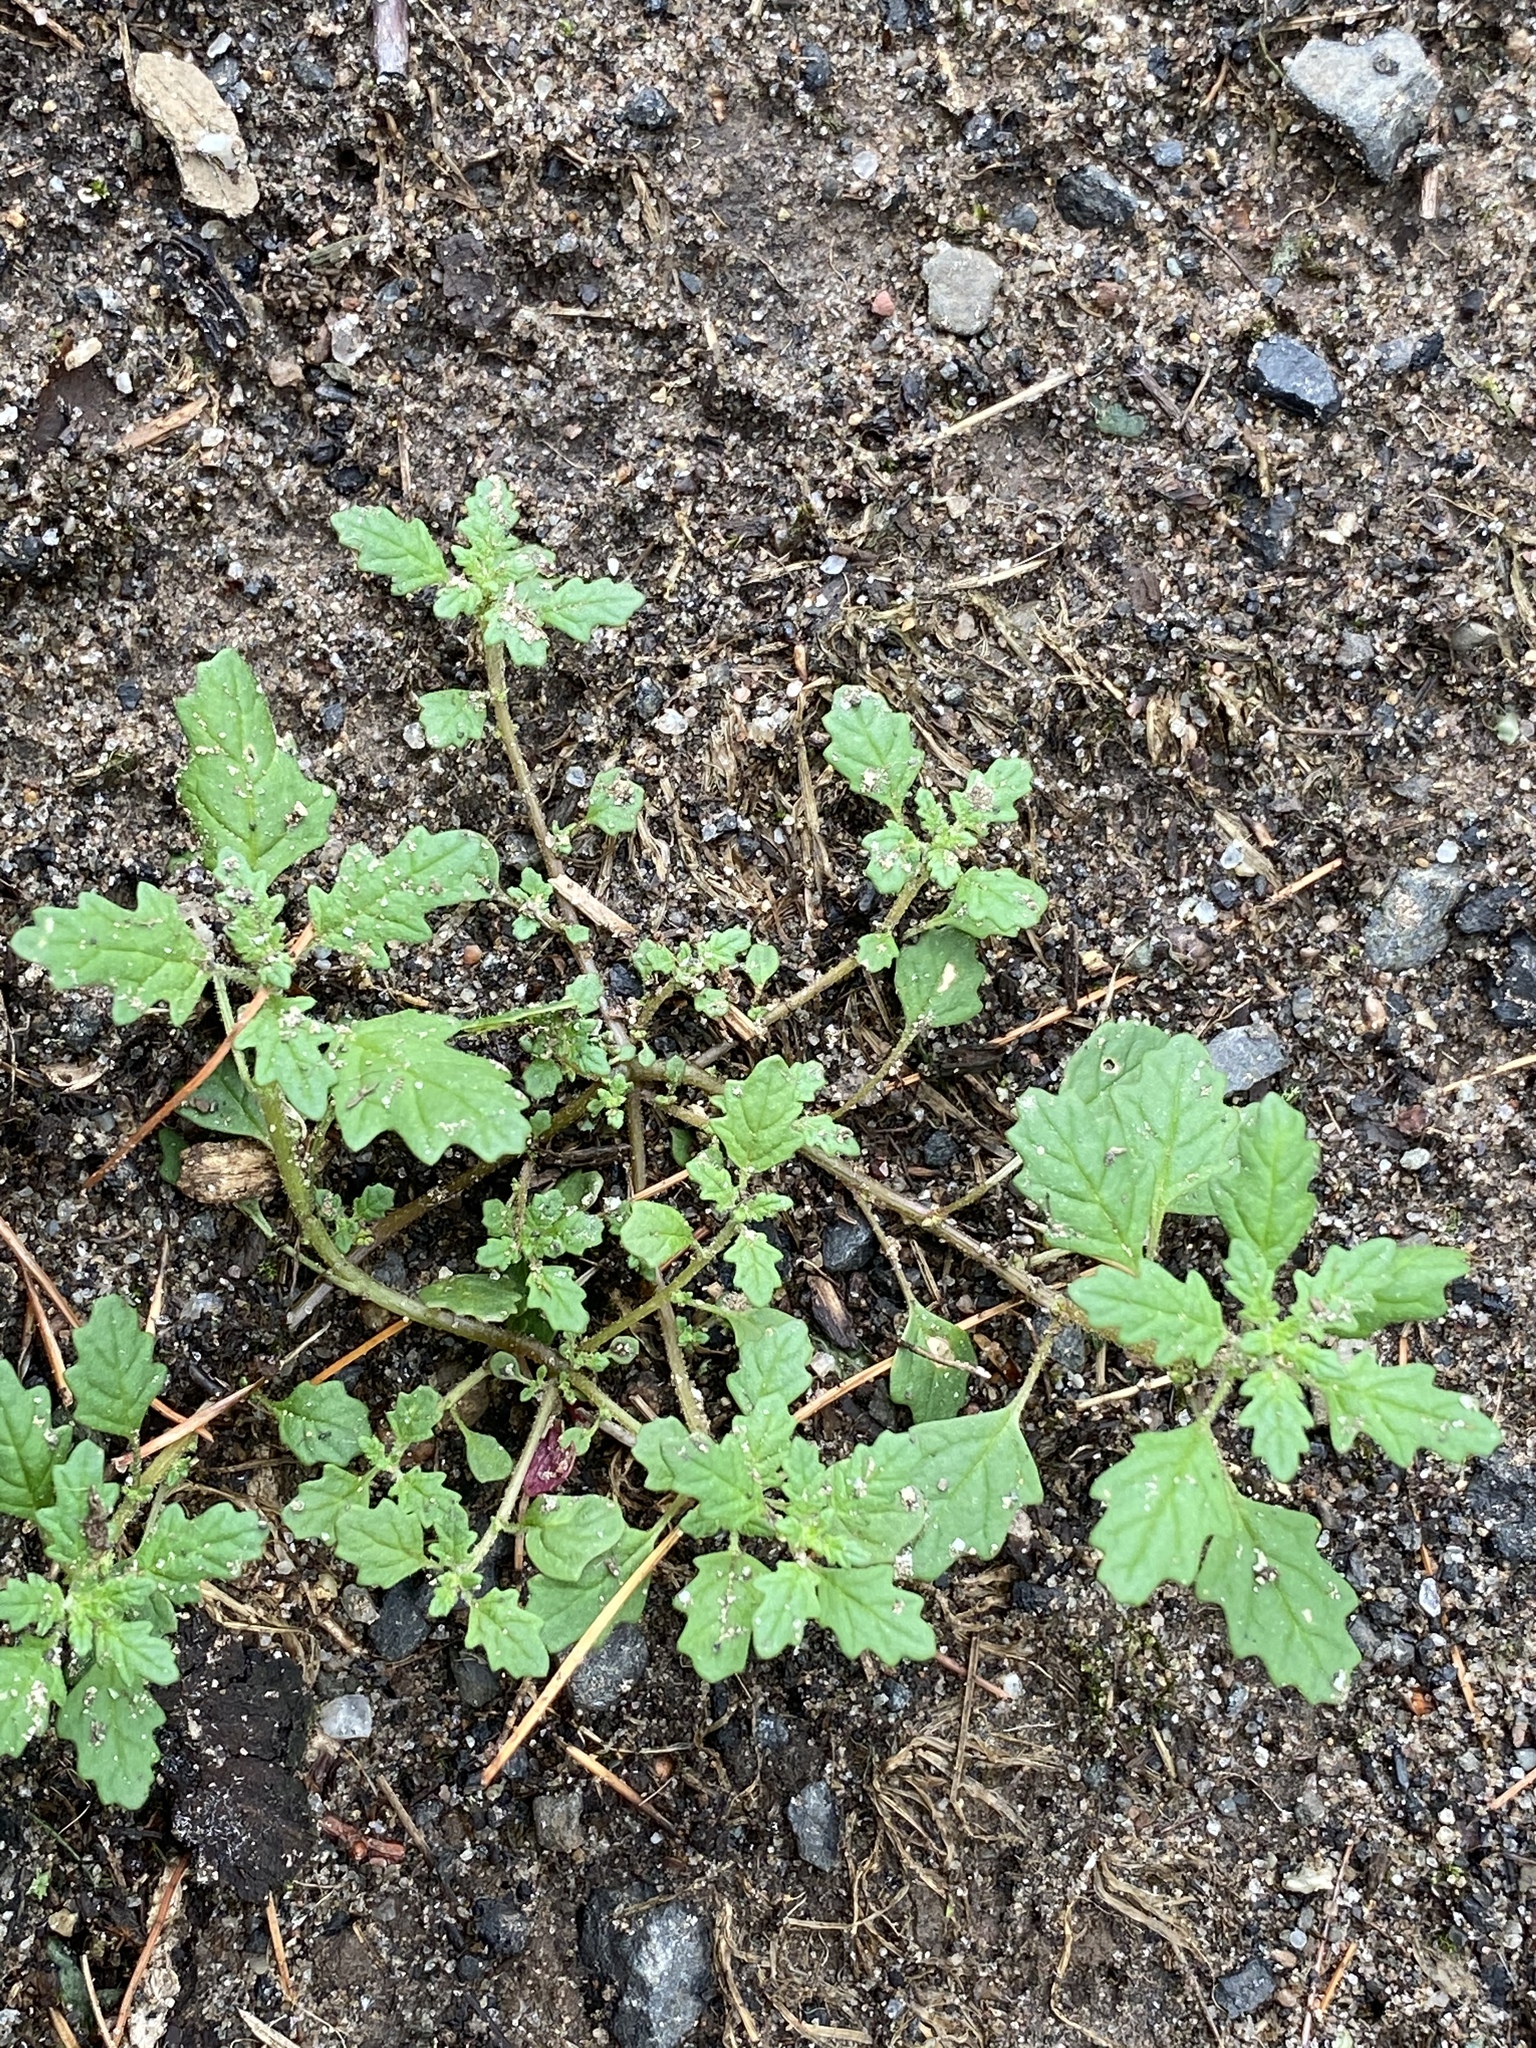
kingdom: Plantae
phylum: Tracheophyta
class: Magnoliopsida
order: Caryophyllales
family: Amaranthaceae
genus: Dysphania
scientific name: Dysphania pumilio
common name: Clammy goosefoot
